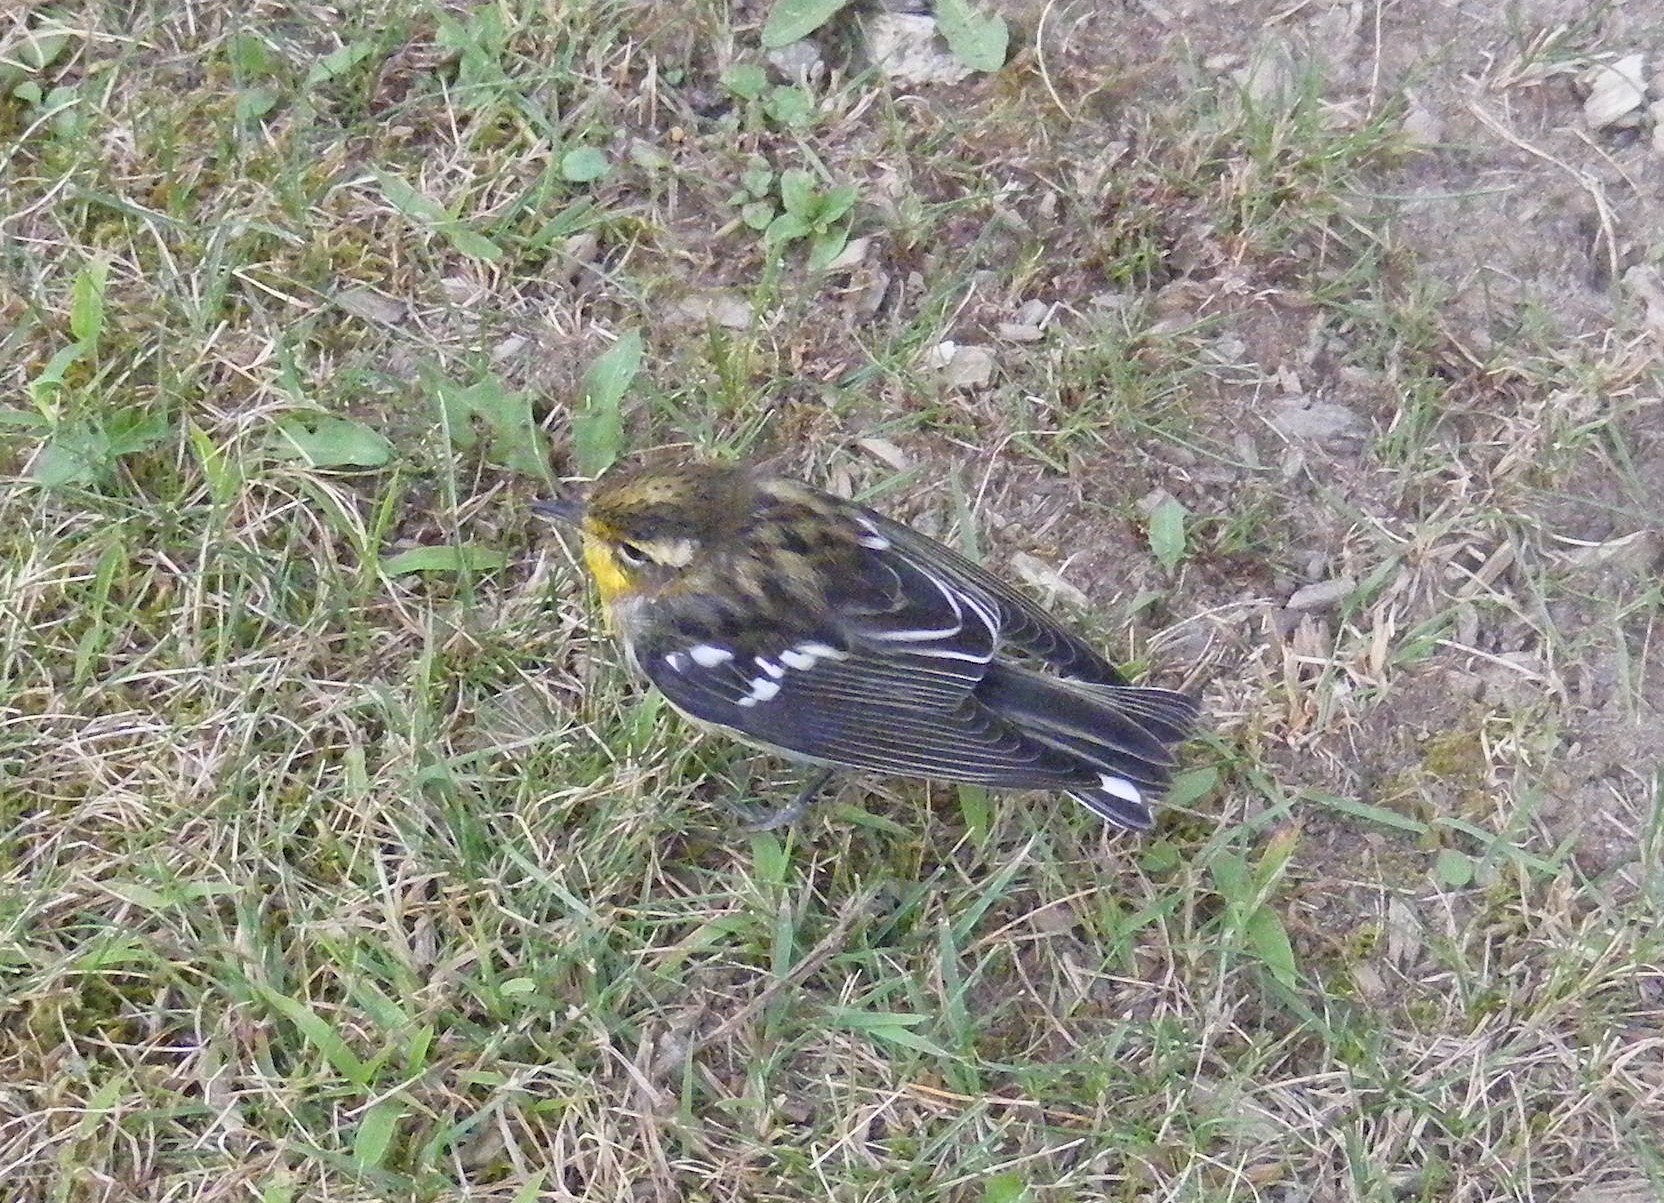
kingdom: Animalia
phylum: Chordata
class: Aves
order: Passeriformes
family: Parulidae
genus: Setophaga
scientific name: Setophaga fusca
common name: Blackburnian warbler
